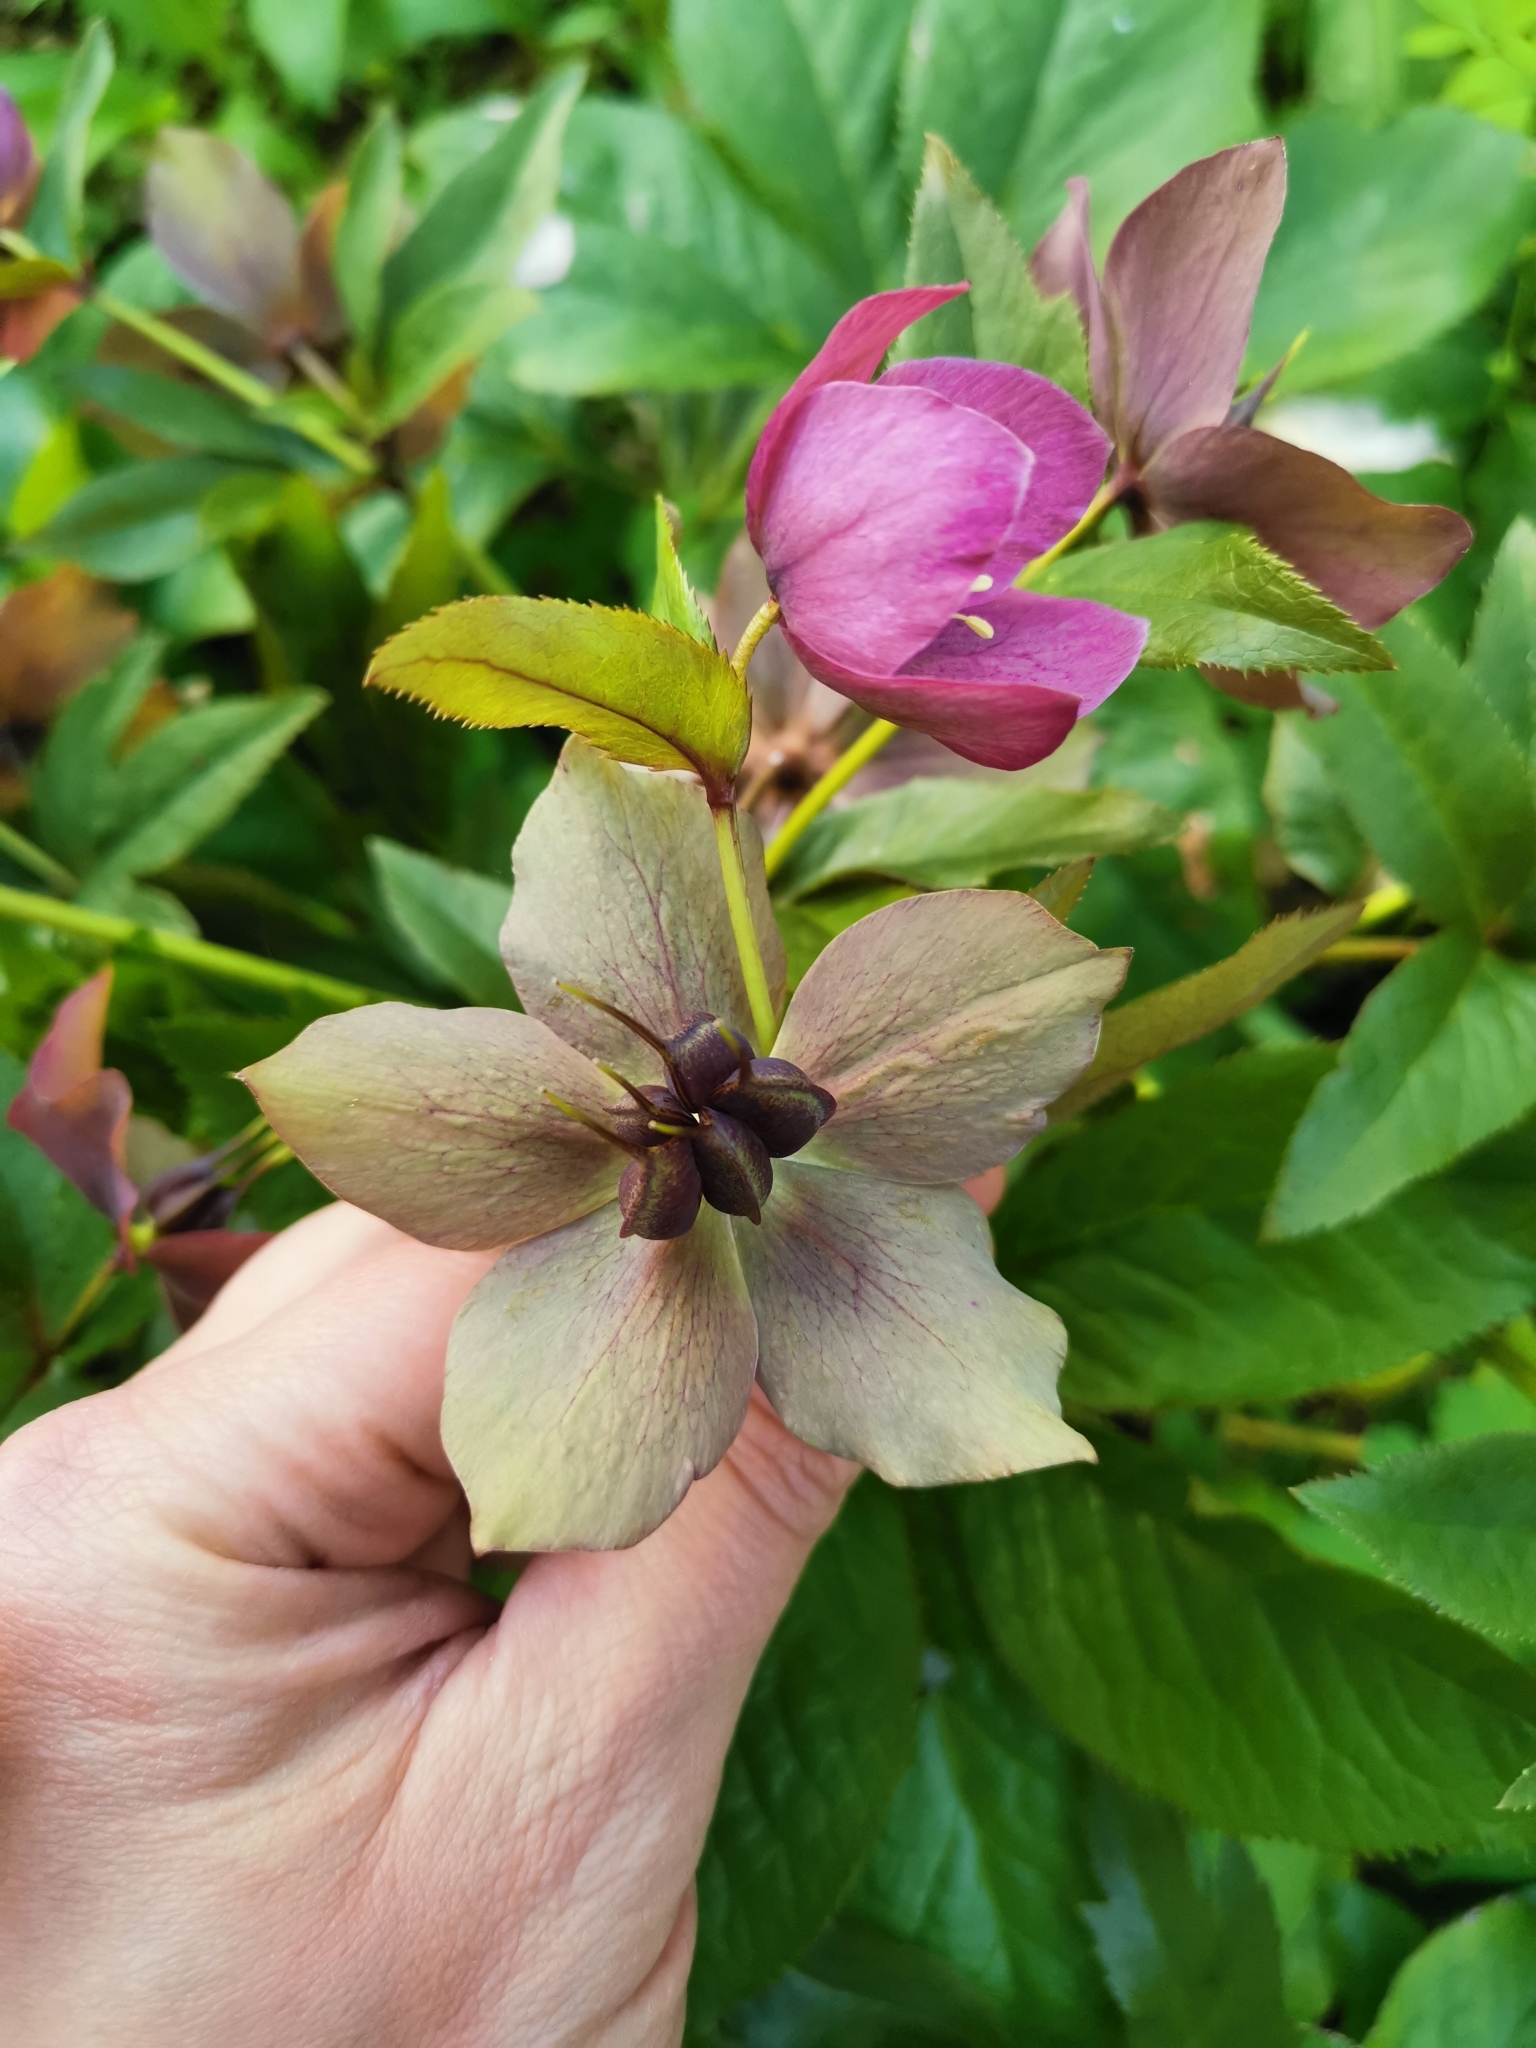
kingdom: Plantae
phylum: Tracheophyta
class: Magnoliopsida
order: Ranunculales
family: Ranunculaceae
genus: Helleborus
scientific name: Helleborus hybridus
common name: Hybrid lenten-rose
